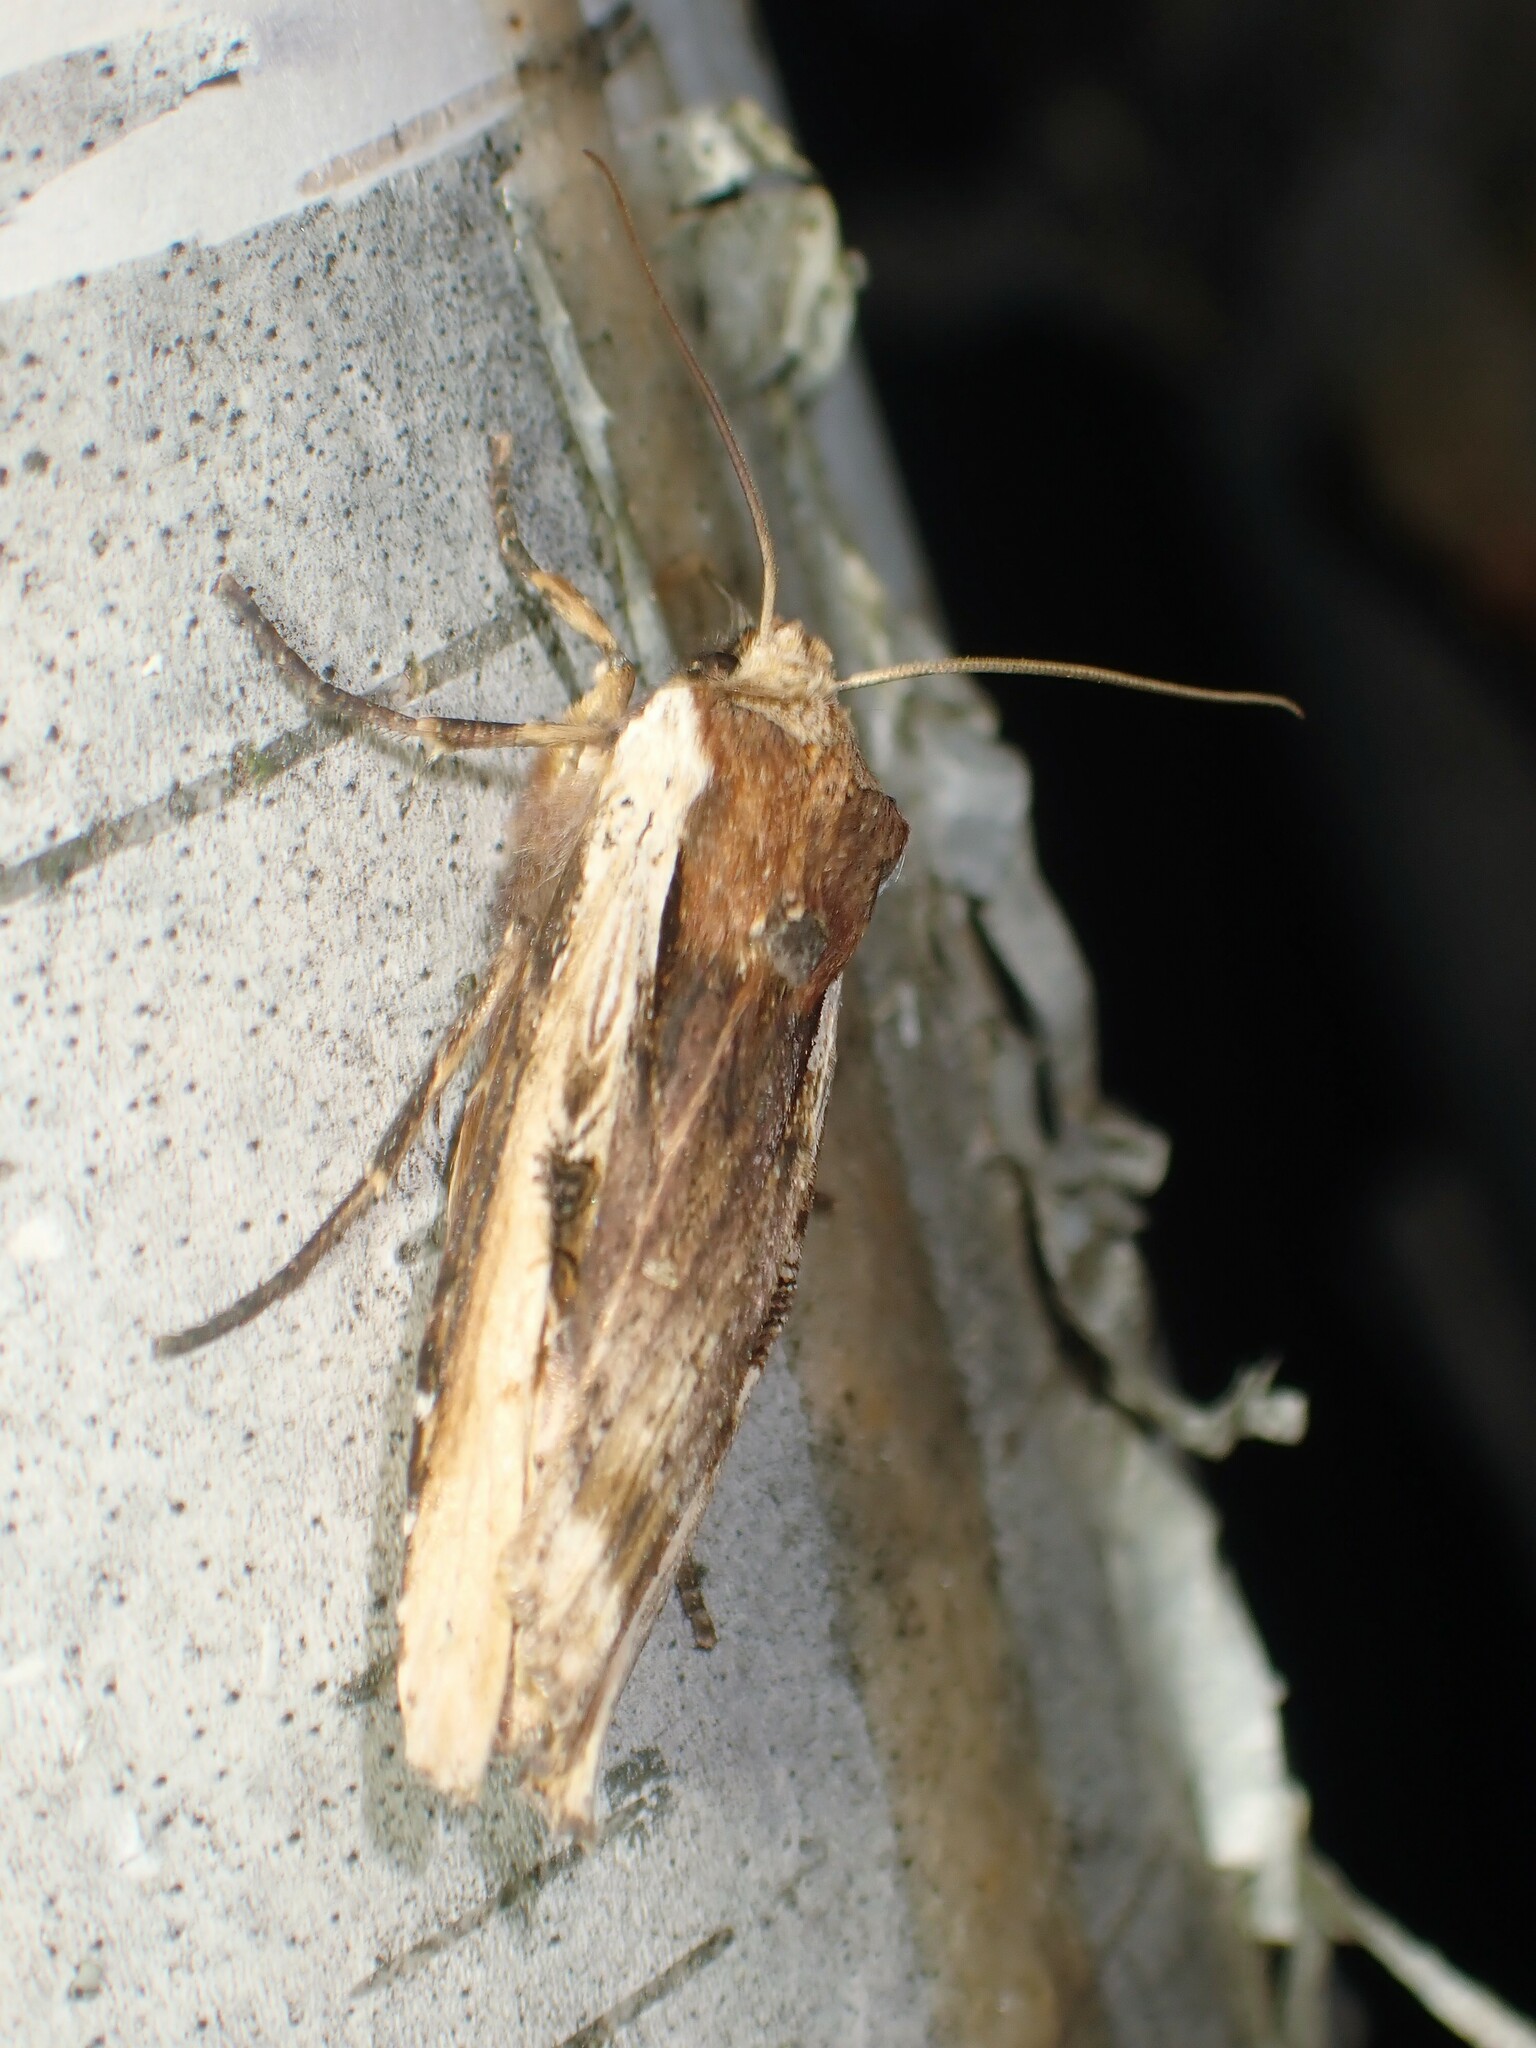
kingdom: Animalia
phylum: Arthropoda
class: Insecta
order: Lepidoptera
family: Noctuidae
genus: Xylena
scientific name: Xylena curvimacula
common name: Dot-and-dash swordgrass moth
